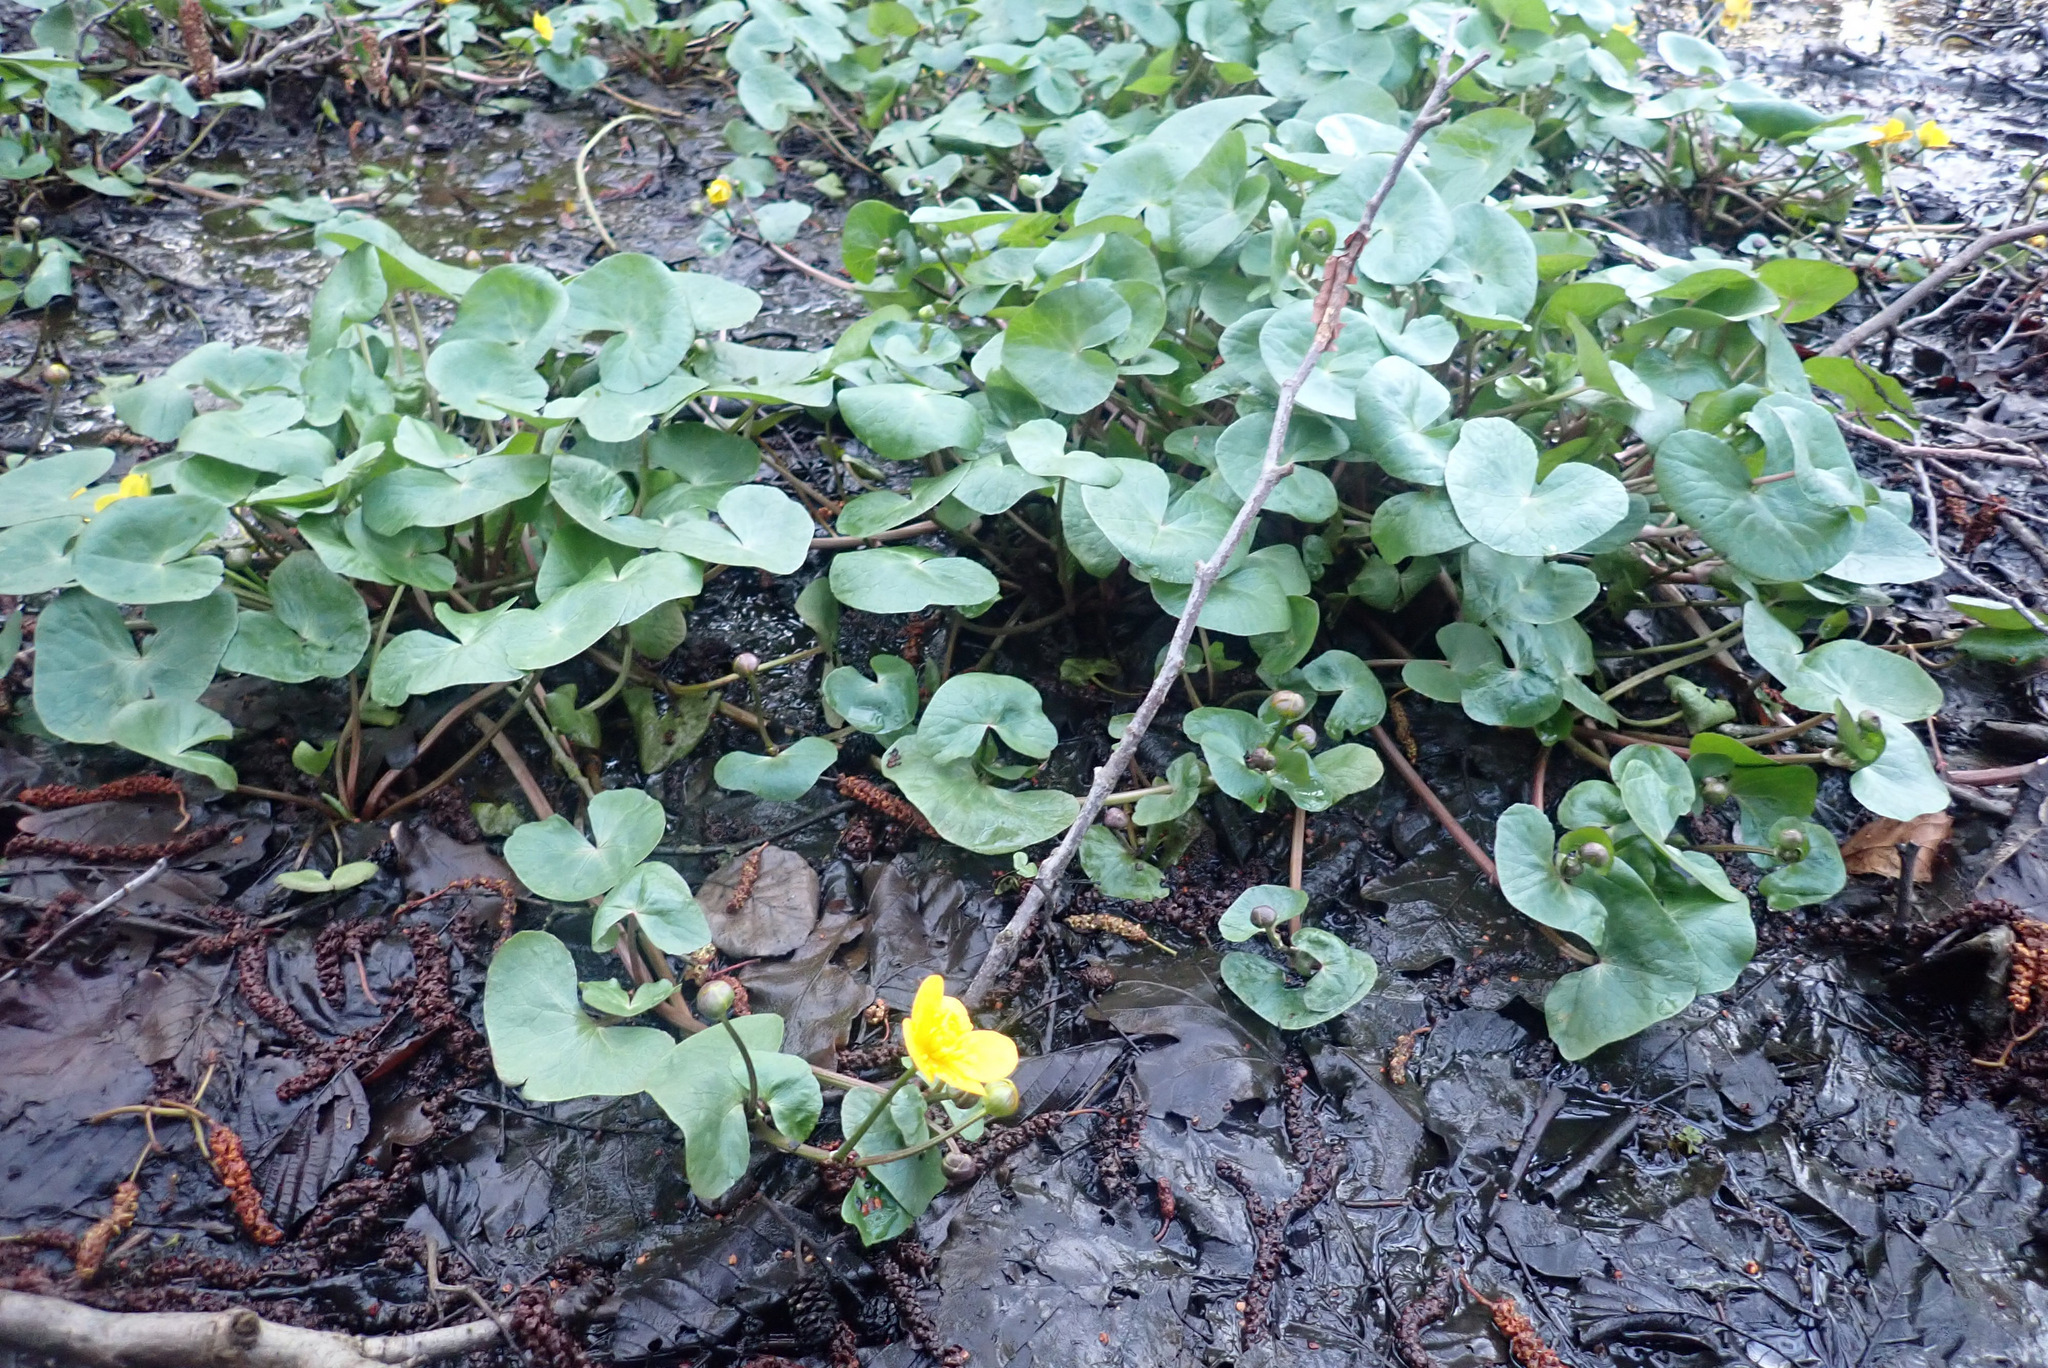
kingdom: Plantae
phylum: Tracheophyta
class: Magnoliopsida
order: Ranunculales
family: Ranunculaceae
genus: Caltha
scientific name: Caltha palustris
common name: Marsh marigold
